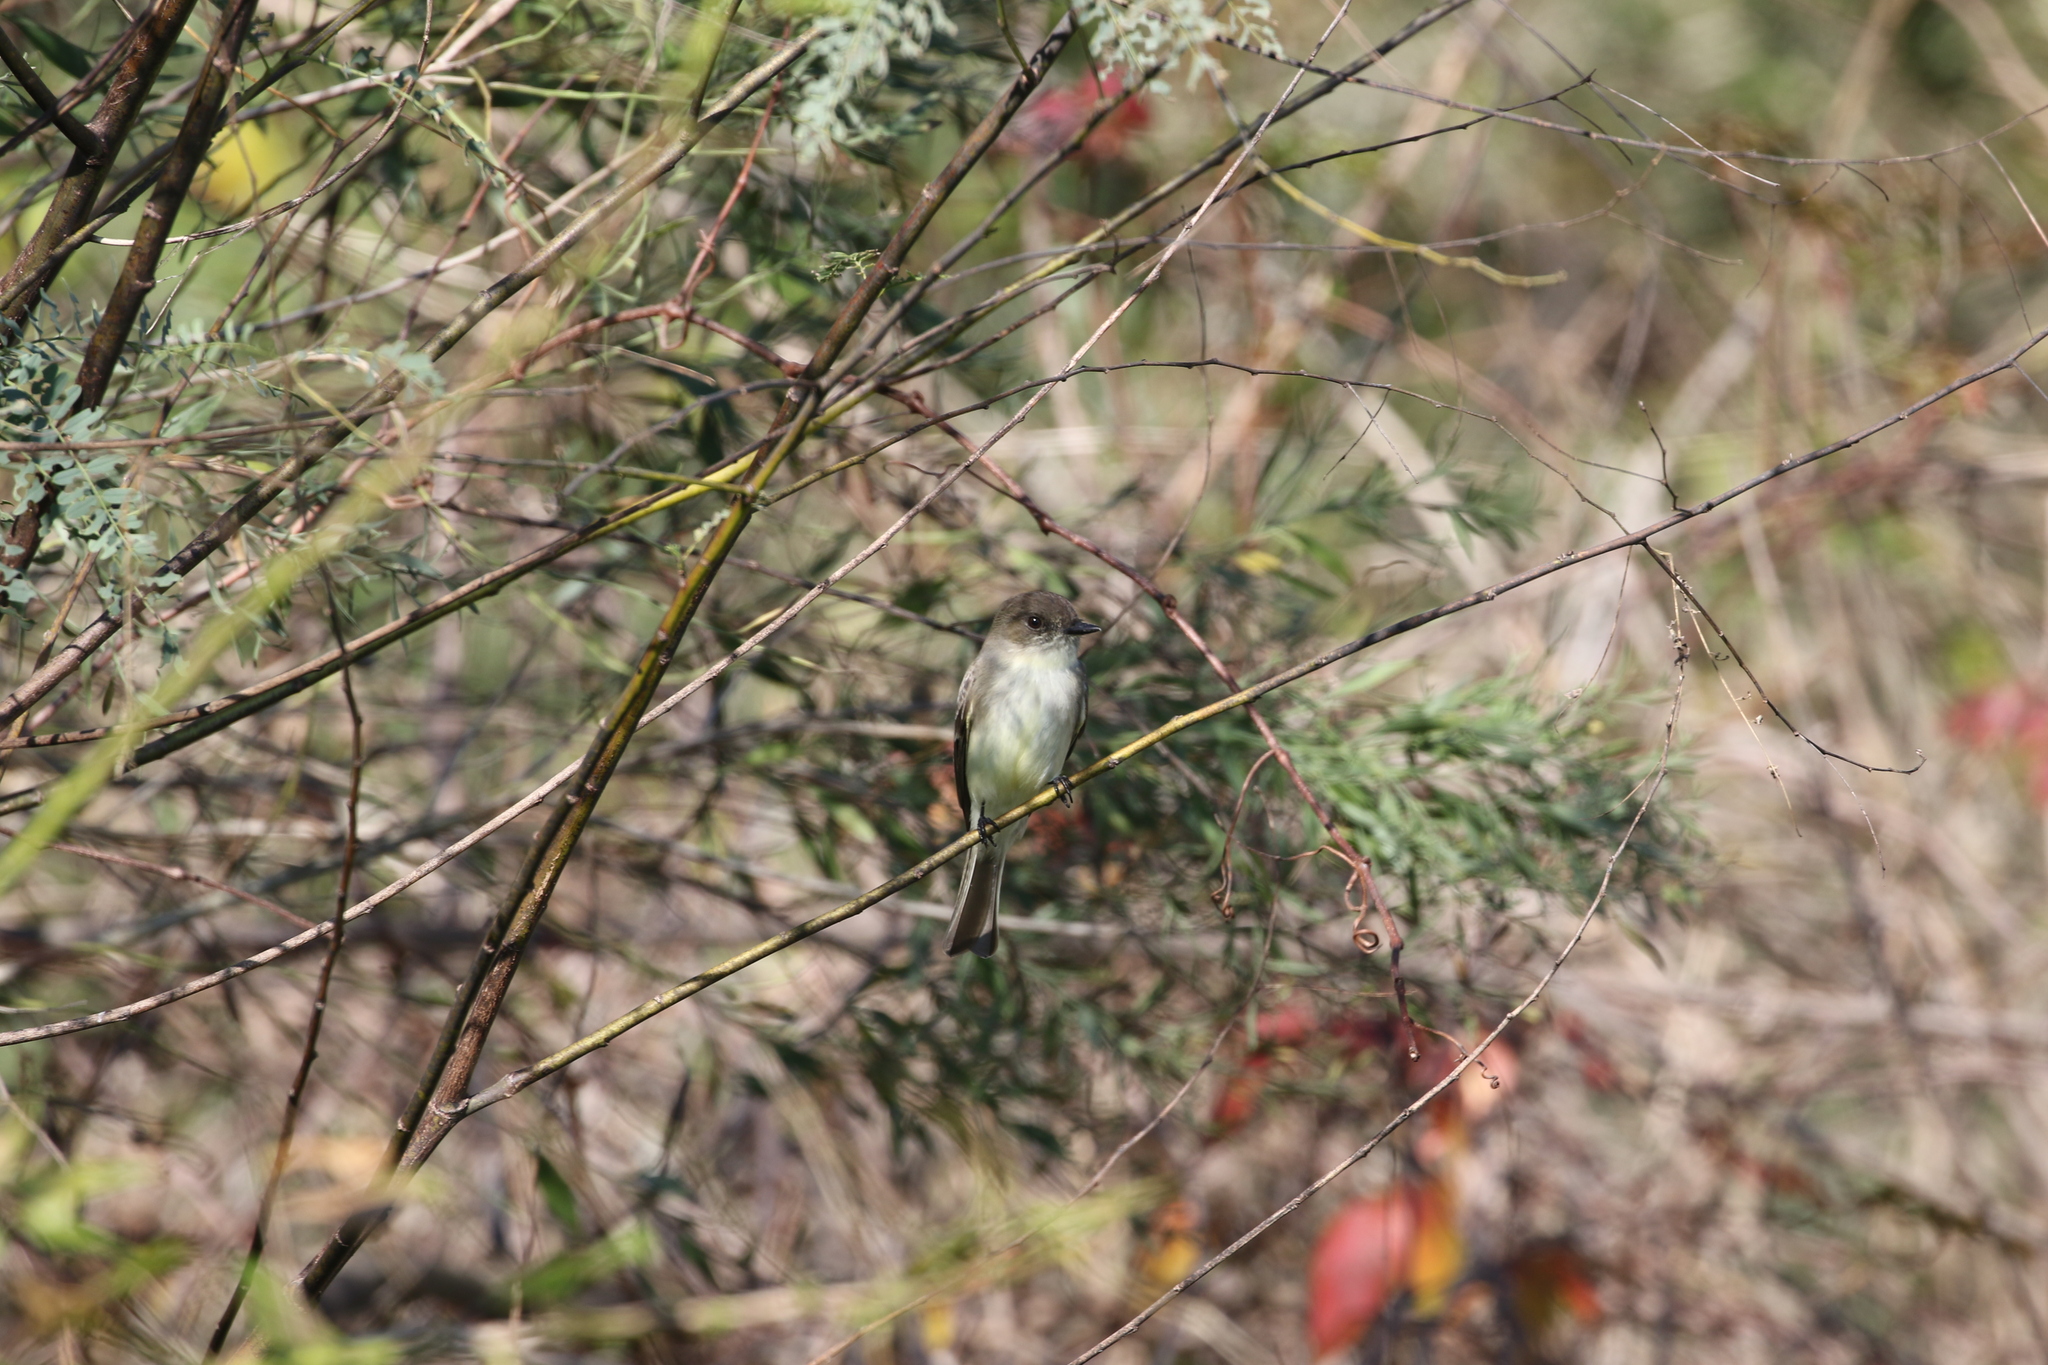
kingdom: Animalia
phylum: Chordata
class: Aves
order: Passeriformes
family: Tyrannidae
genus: Sayornis
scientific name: Sayornis phoebe
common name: Eastern phoebe
